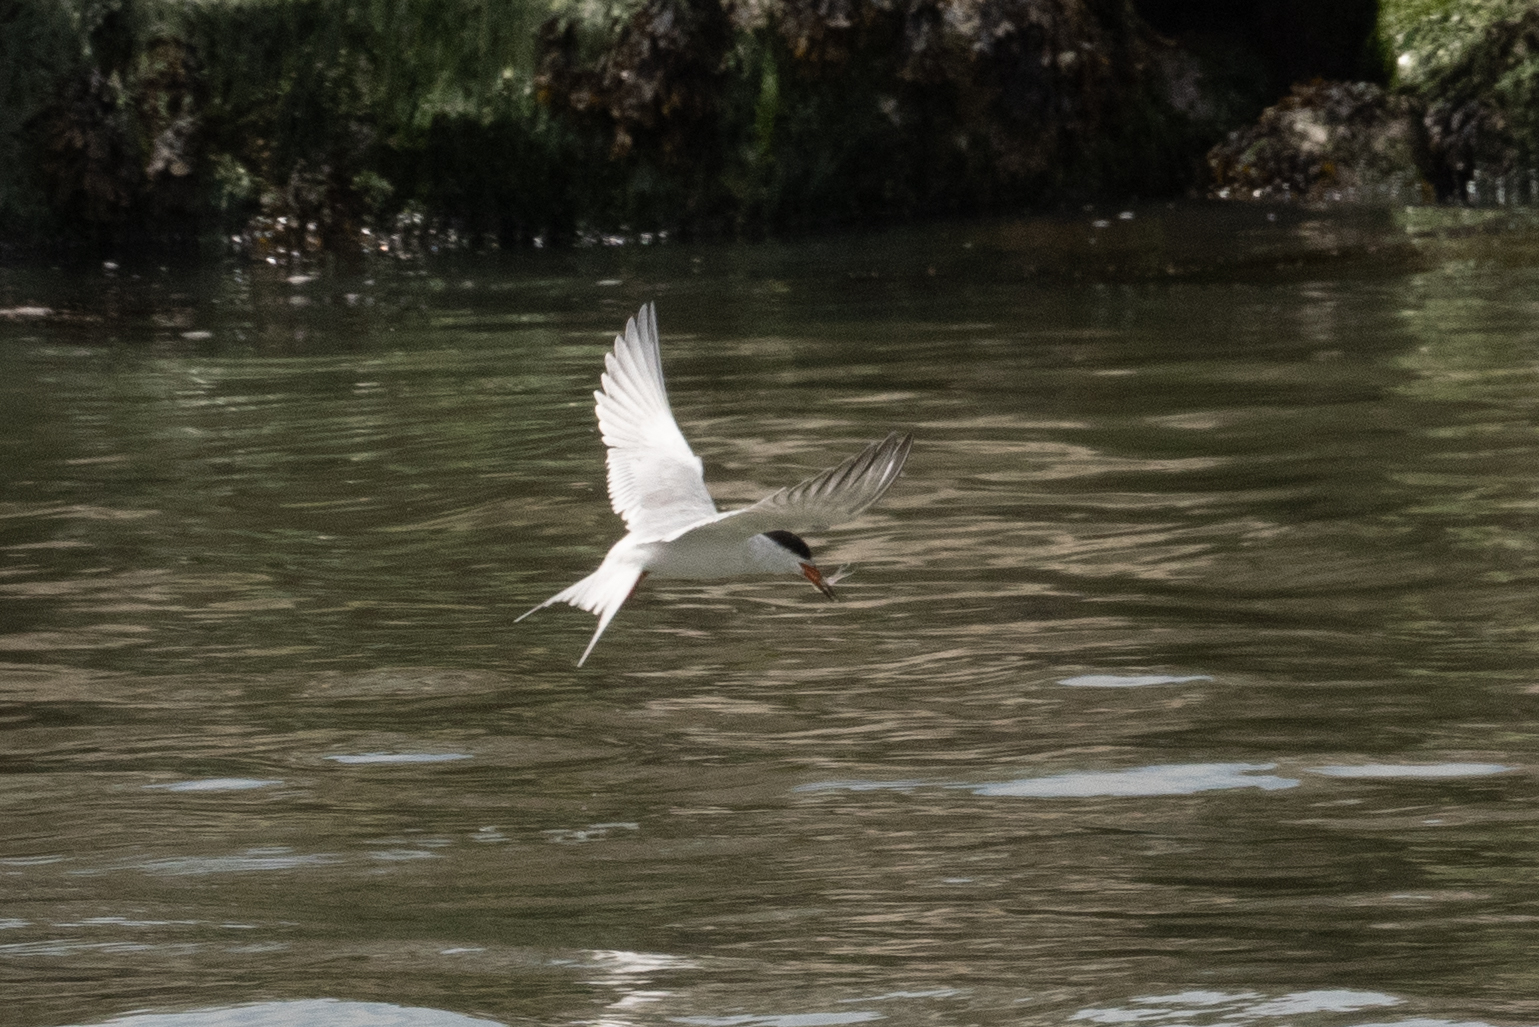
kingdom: Animalia
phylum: Chordata
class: Aves
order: Charadriiformes
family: Laridae
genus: Sterna
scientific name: Sterna forsteri
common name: Forster's tern
